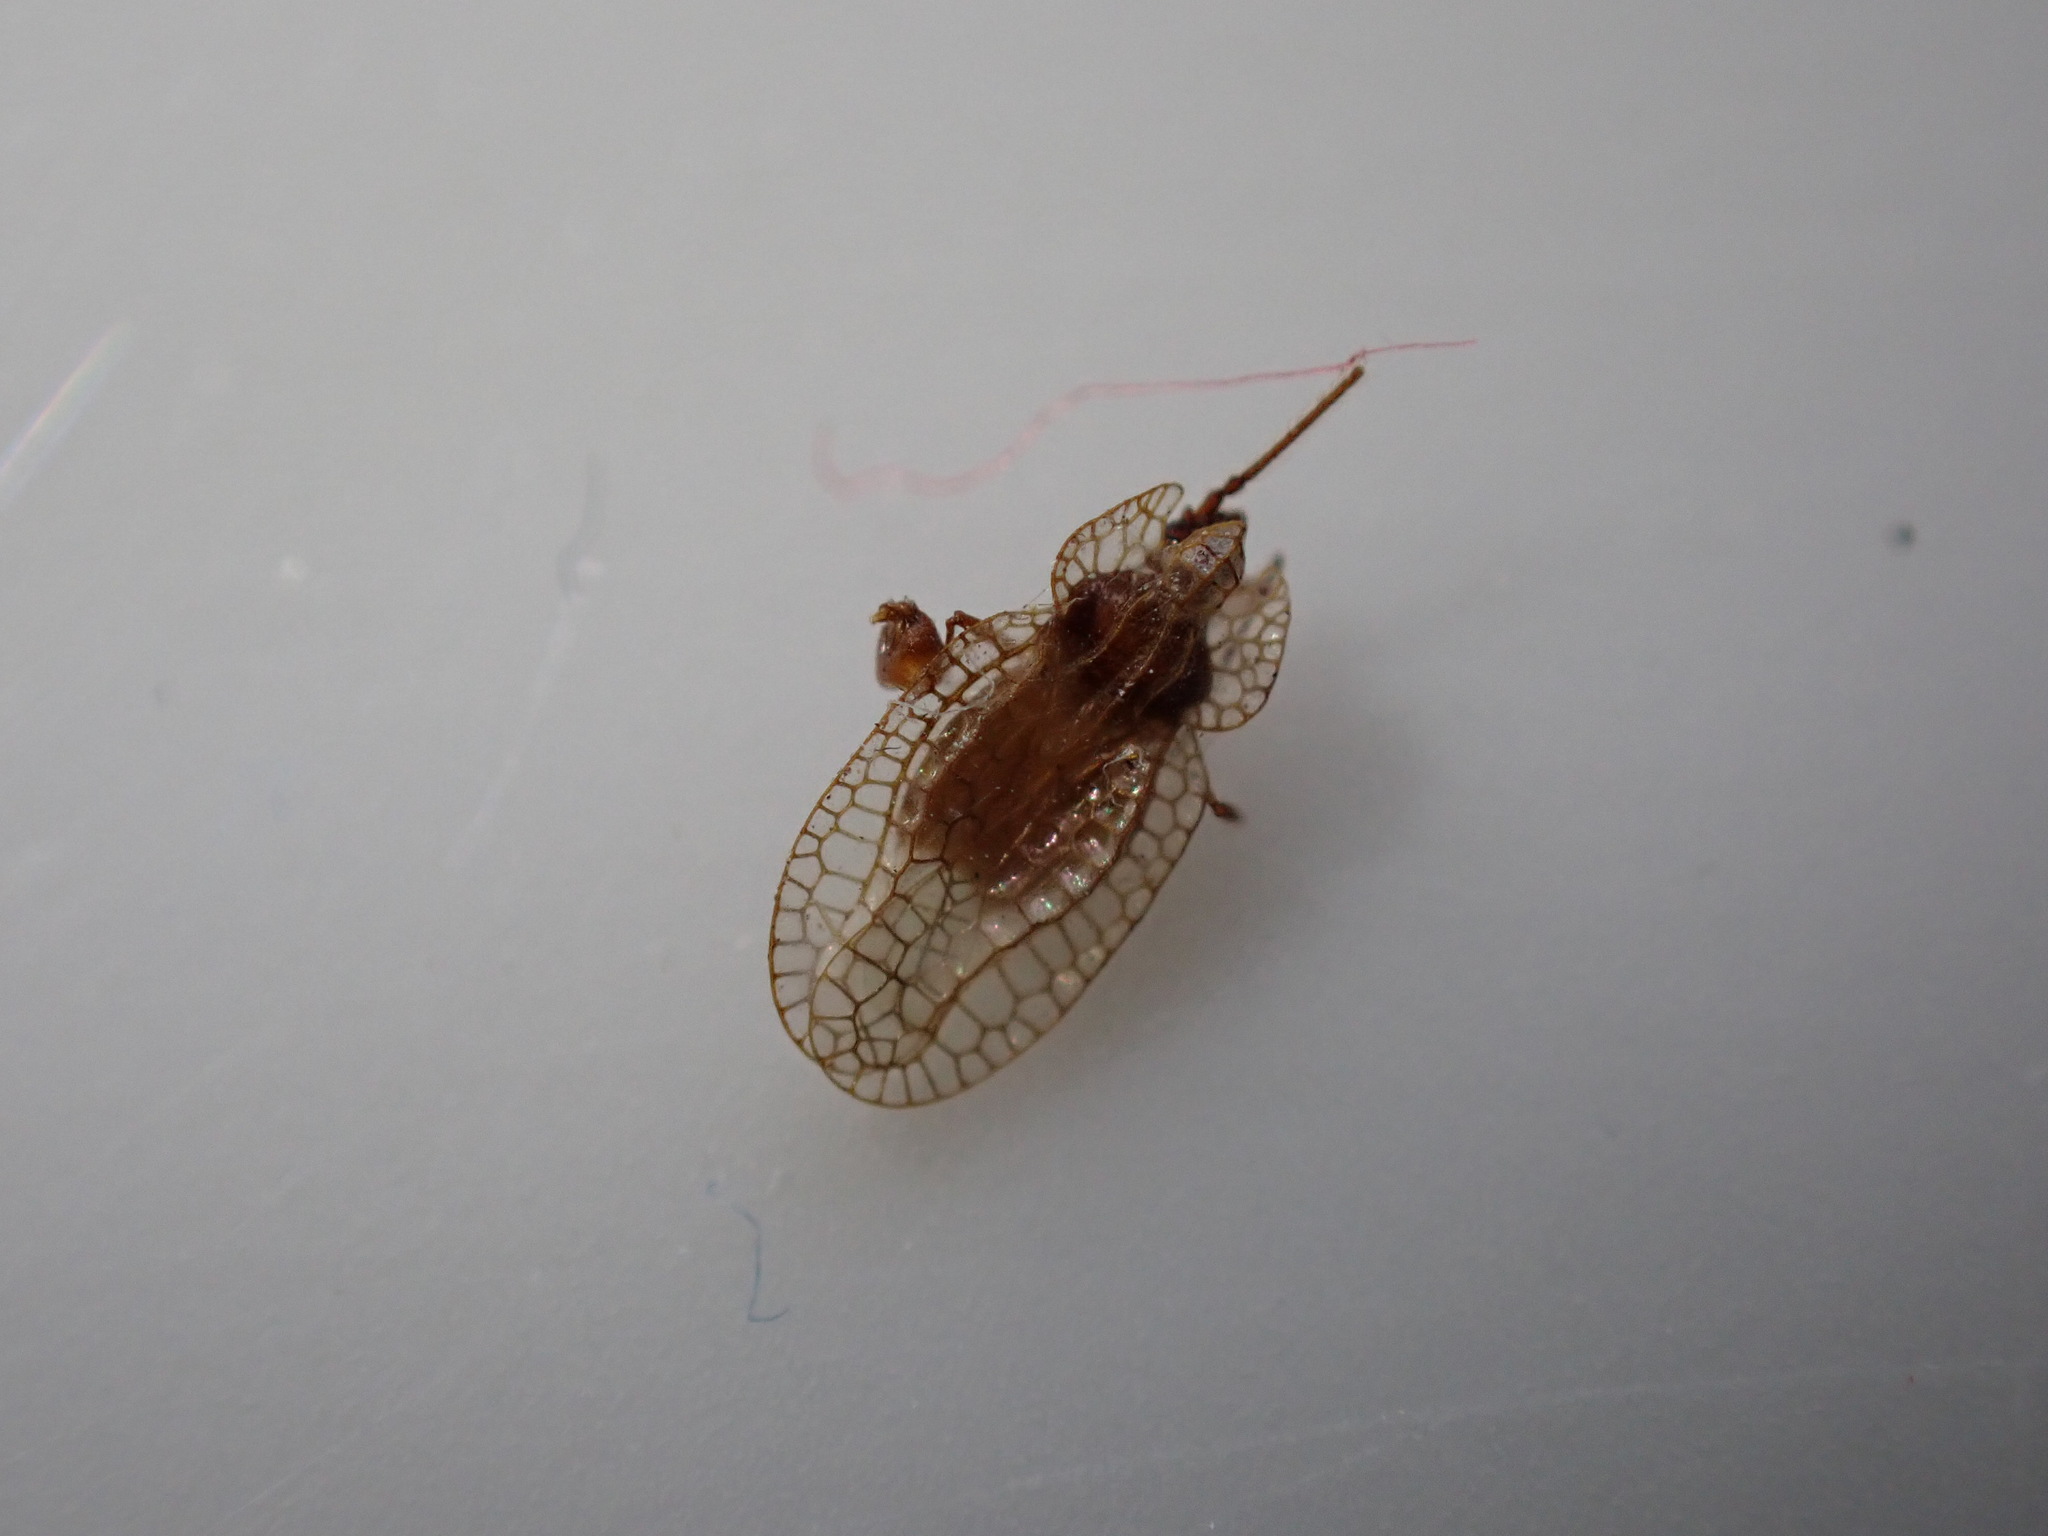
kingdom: Animalia
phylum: Arthropoda
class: Insecta
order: Hemiptera
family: Tingidae
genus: Derephysia
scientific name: Derephysia foliacea
